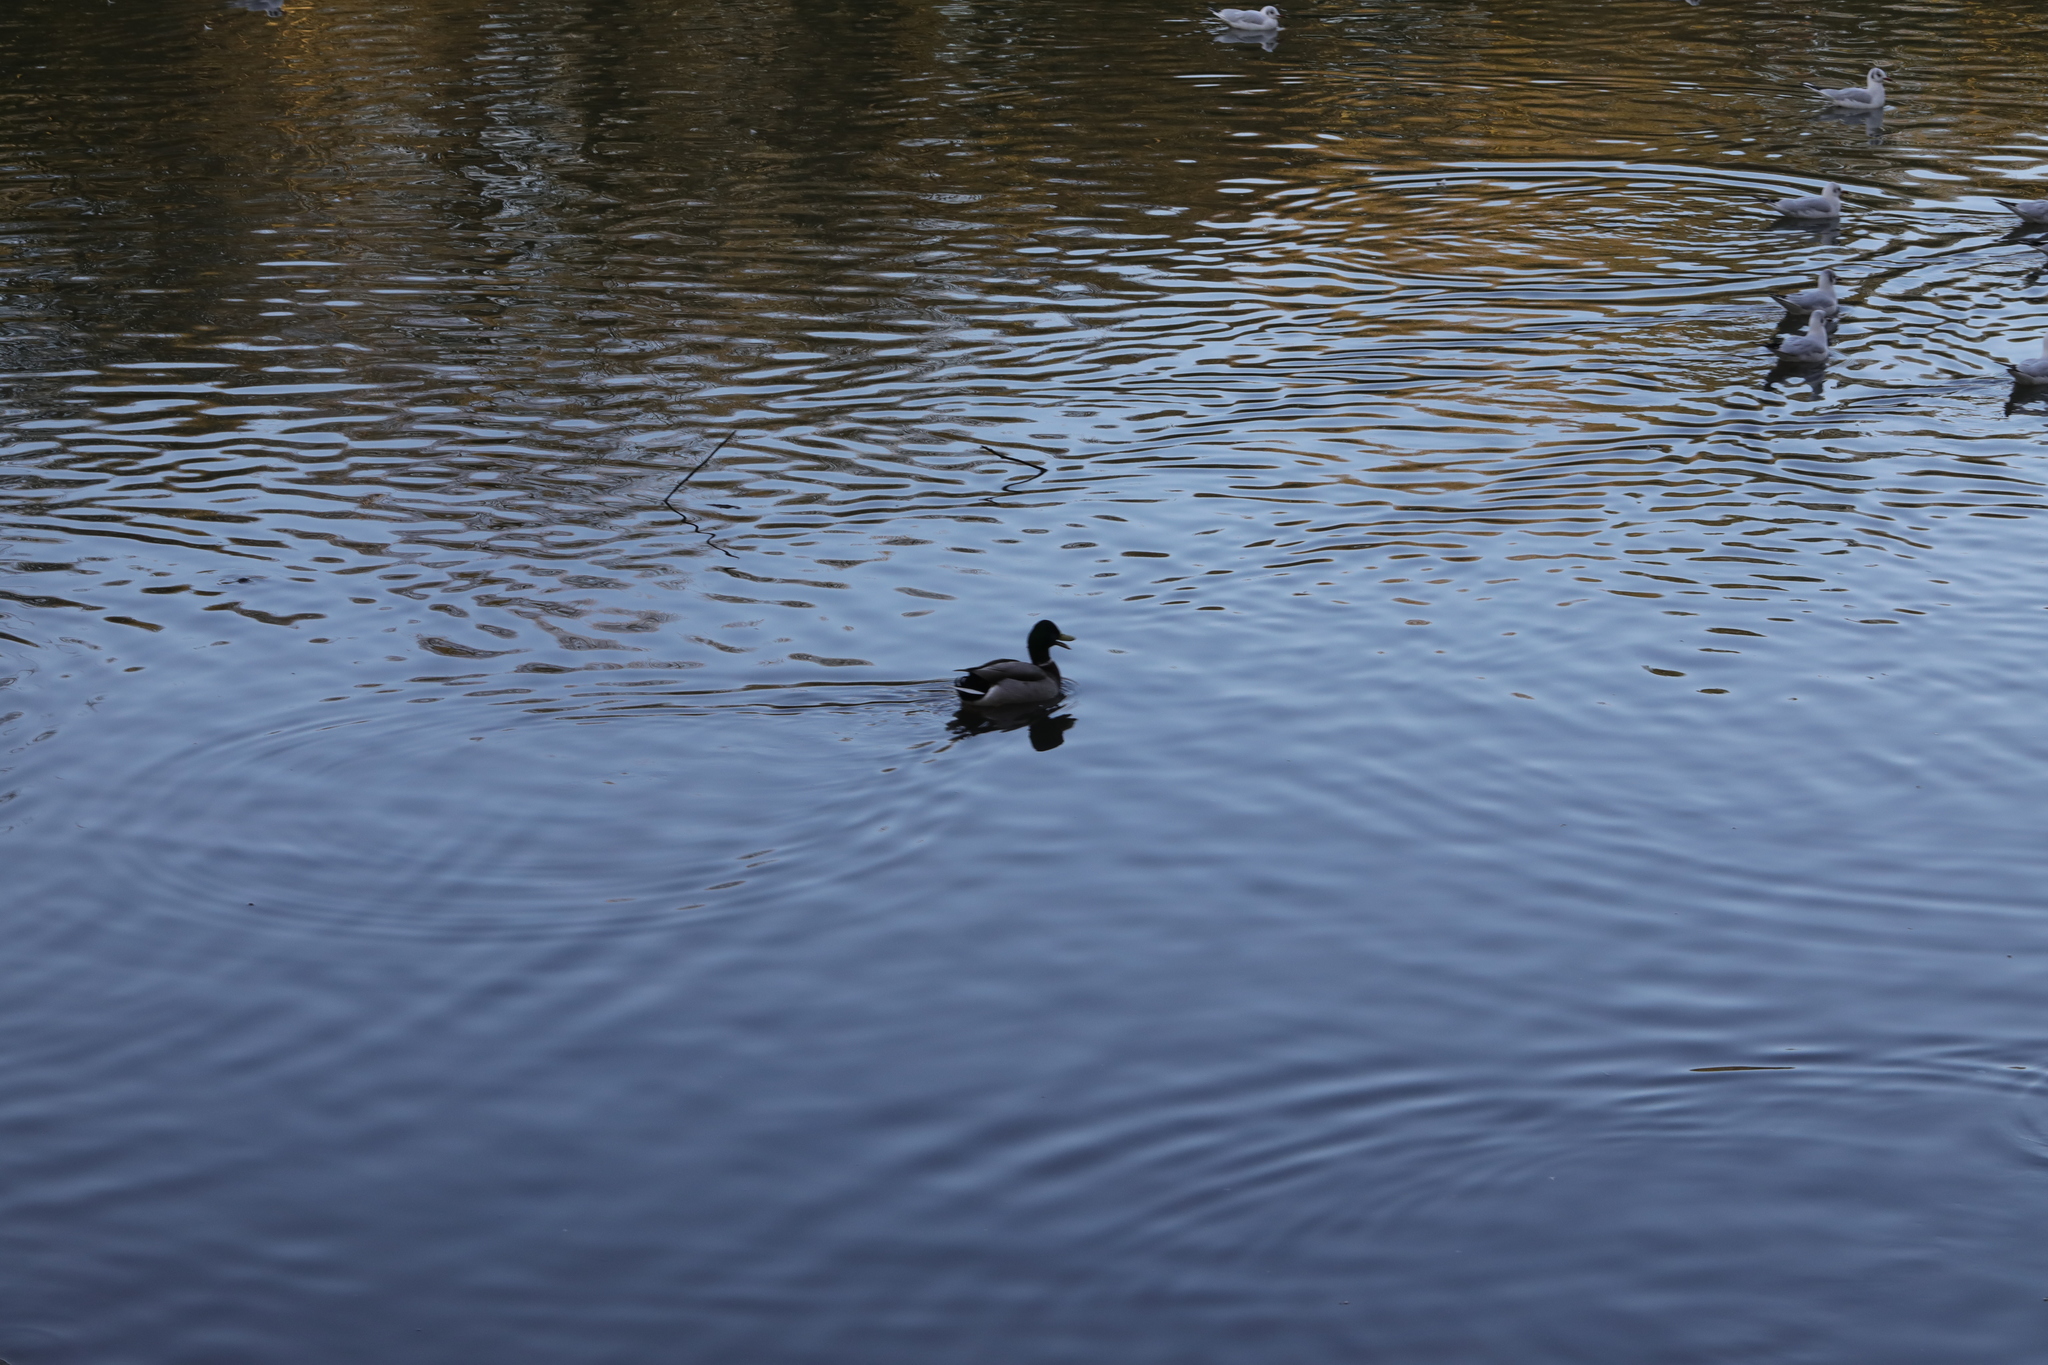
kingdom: Animalia
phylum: Chordata
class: Aves
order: Anseriformes
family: Anatidae
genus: Anas
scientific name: Anas platyrhynchos
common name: Mallard
